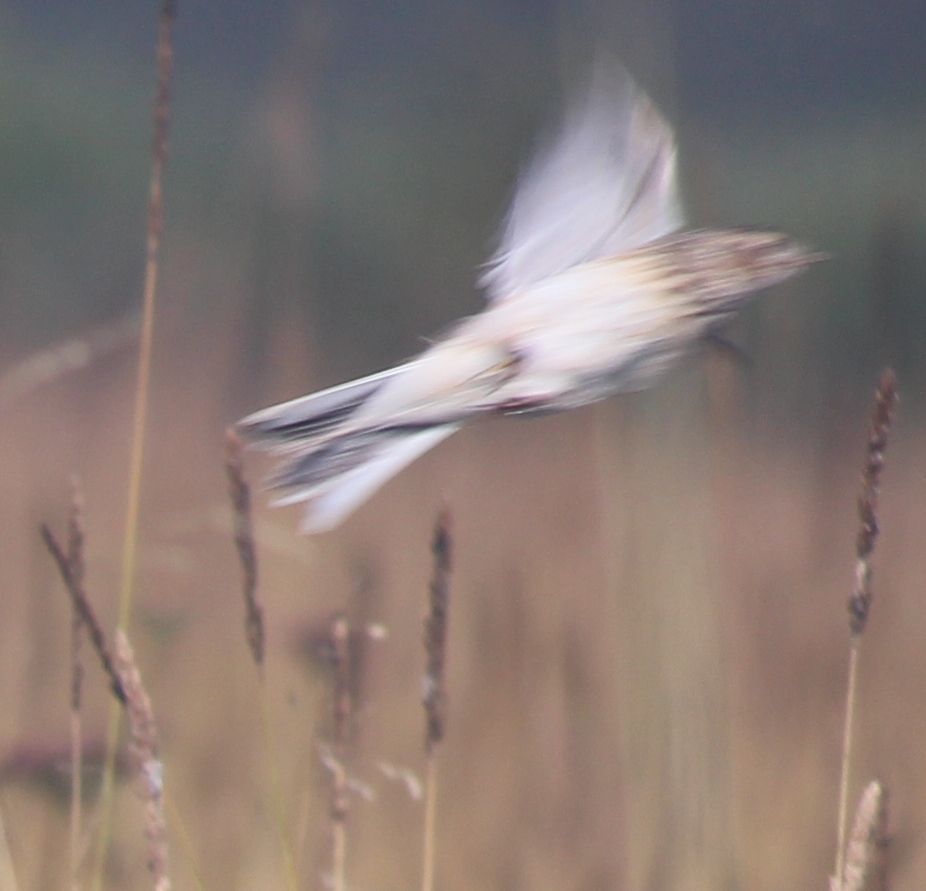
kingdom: Animalia
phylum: Chordata
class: Aves
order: Passeriformes
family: Alaudidae
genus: Alauda
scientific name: Alauda arvensis
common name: Eurasian skylark
